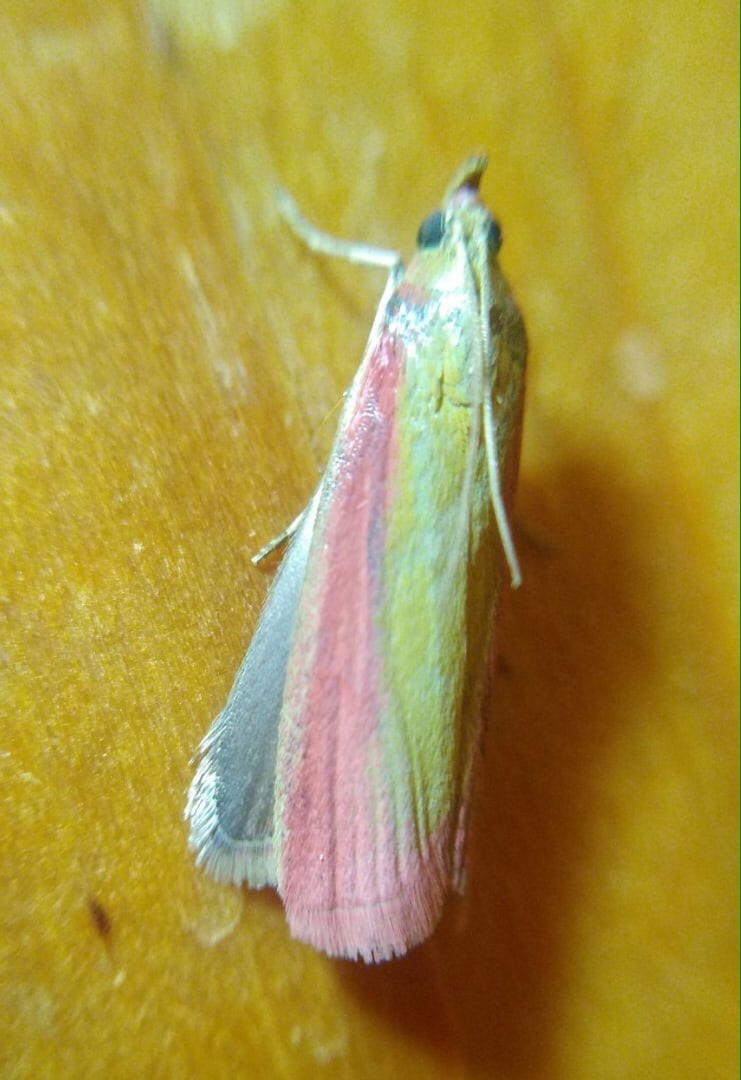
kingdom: Animalia
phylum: Arthropoda
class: Insecta
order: Lepidoptera
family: Pyralidae
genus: Oncocera
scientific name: Oncocera semirubella
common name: Rosy-striped knot-horn
